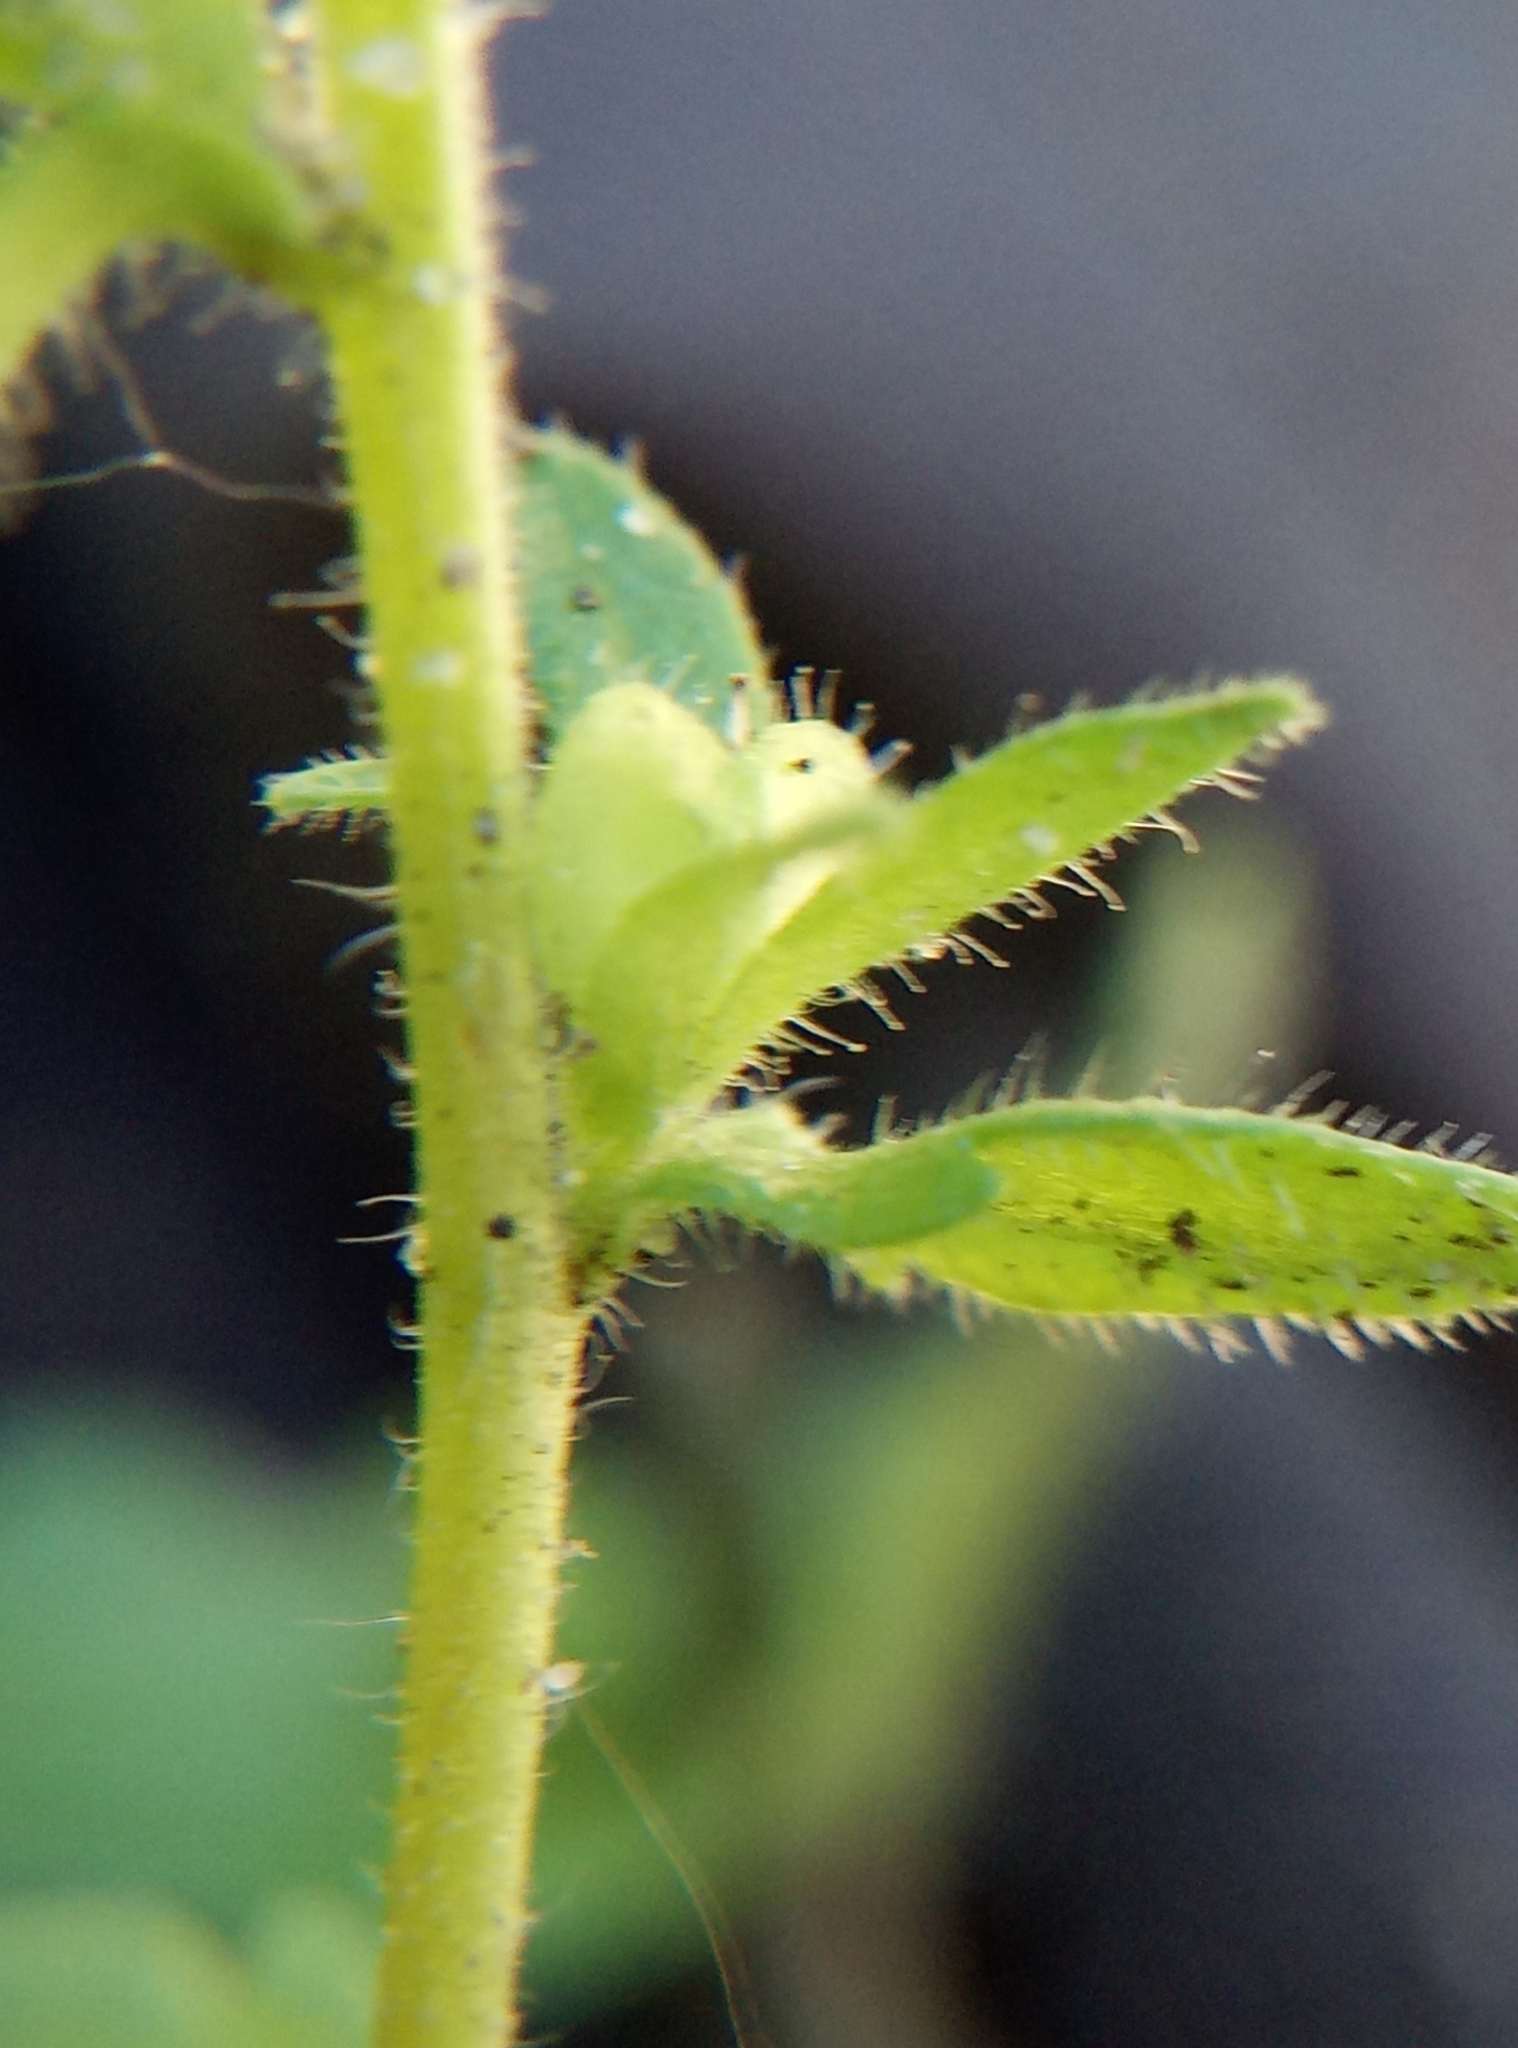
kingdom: Plantae
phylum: Tracheophyta
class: Magnoliopsida
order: Lamiales
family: Plantaginaceae
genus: Veronica
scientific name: Veronica arvensis
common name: Corn speedwell
